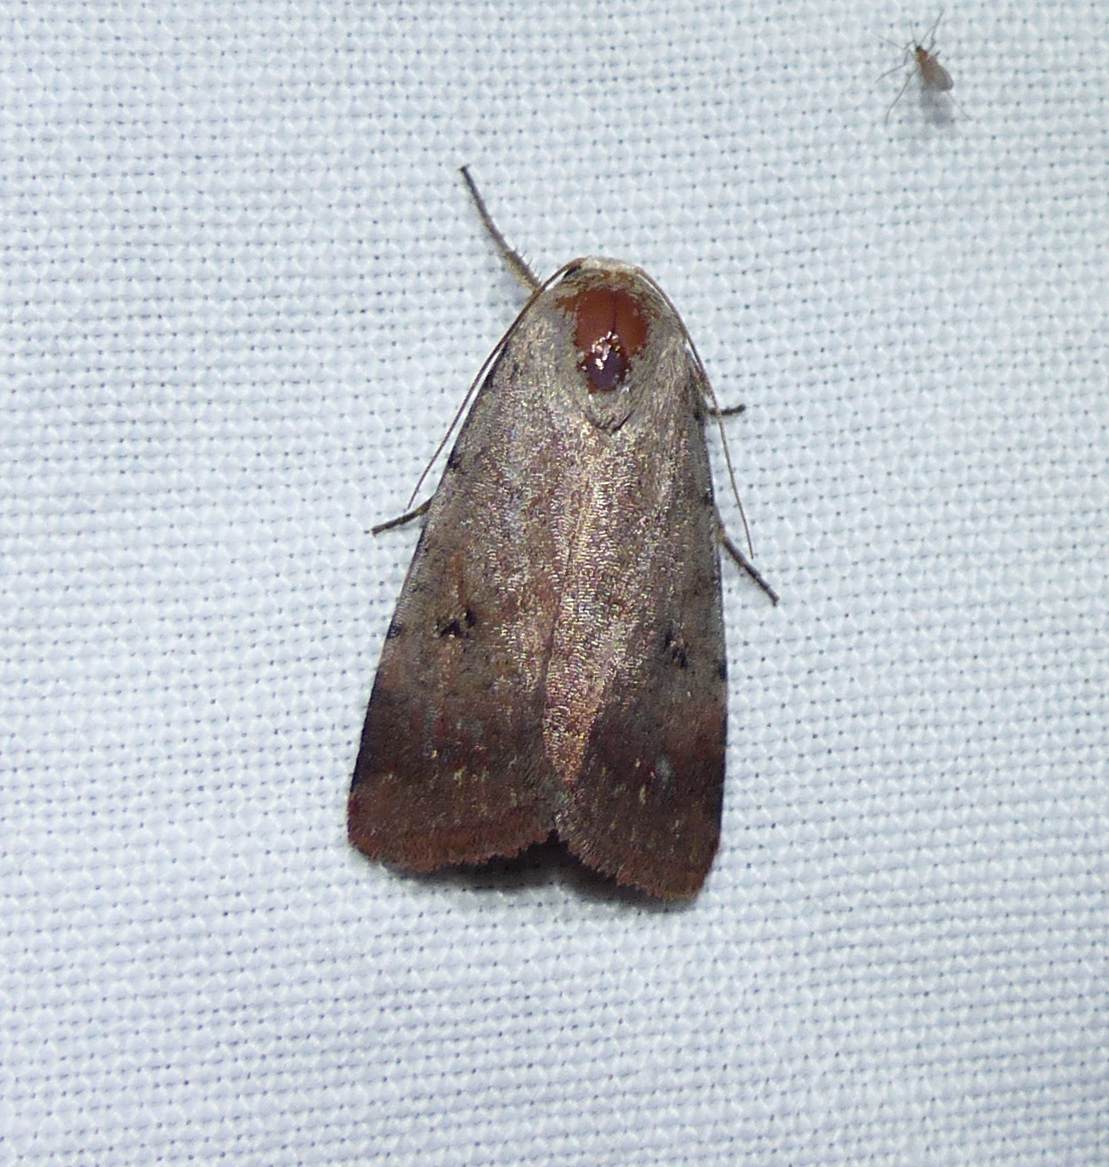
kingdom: Animalia
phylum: Arthropoda
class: Insecta
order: Lepidoptera
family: Noctuidae
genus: Anicla
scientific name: Anicla illapsa
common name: Snowy dart
